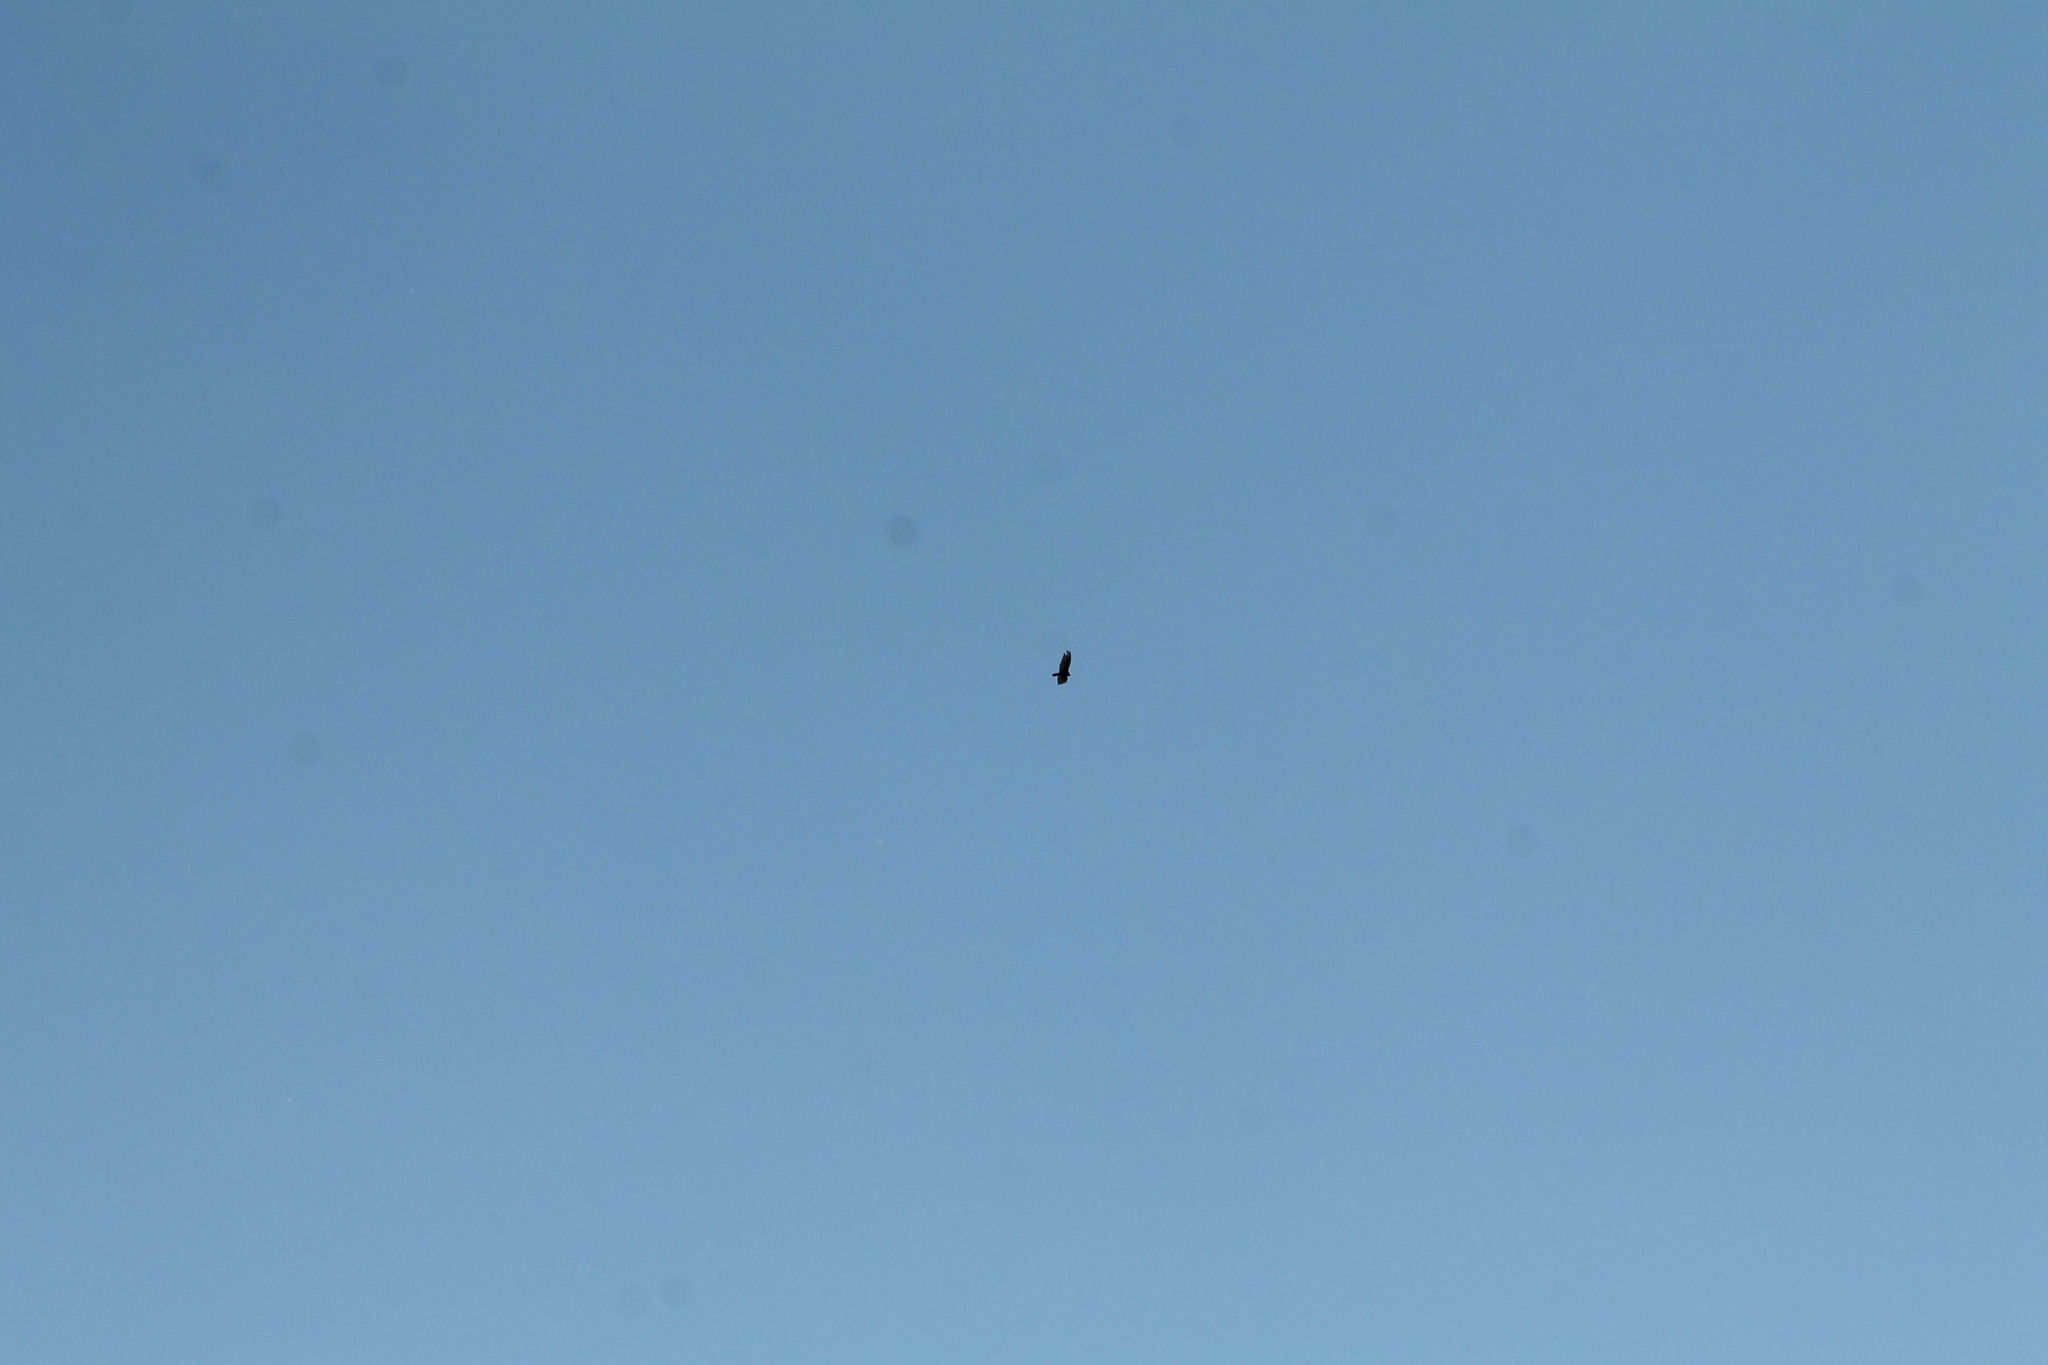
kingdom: Animalia
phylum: Chordata
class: Aves
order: Accipitriformes
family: Cathartidae
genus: Cathartes
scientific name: Cathartes aura
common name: Turkey vulture
